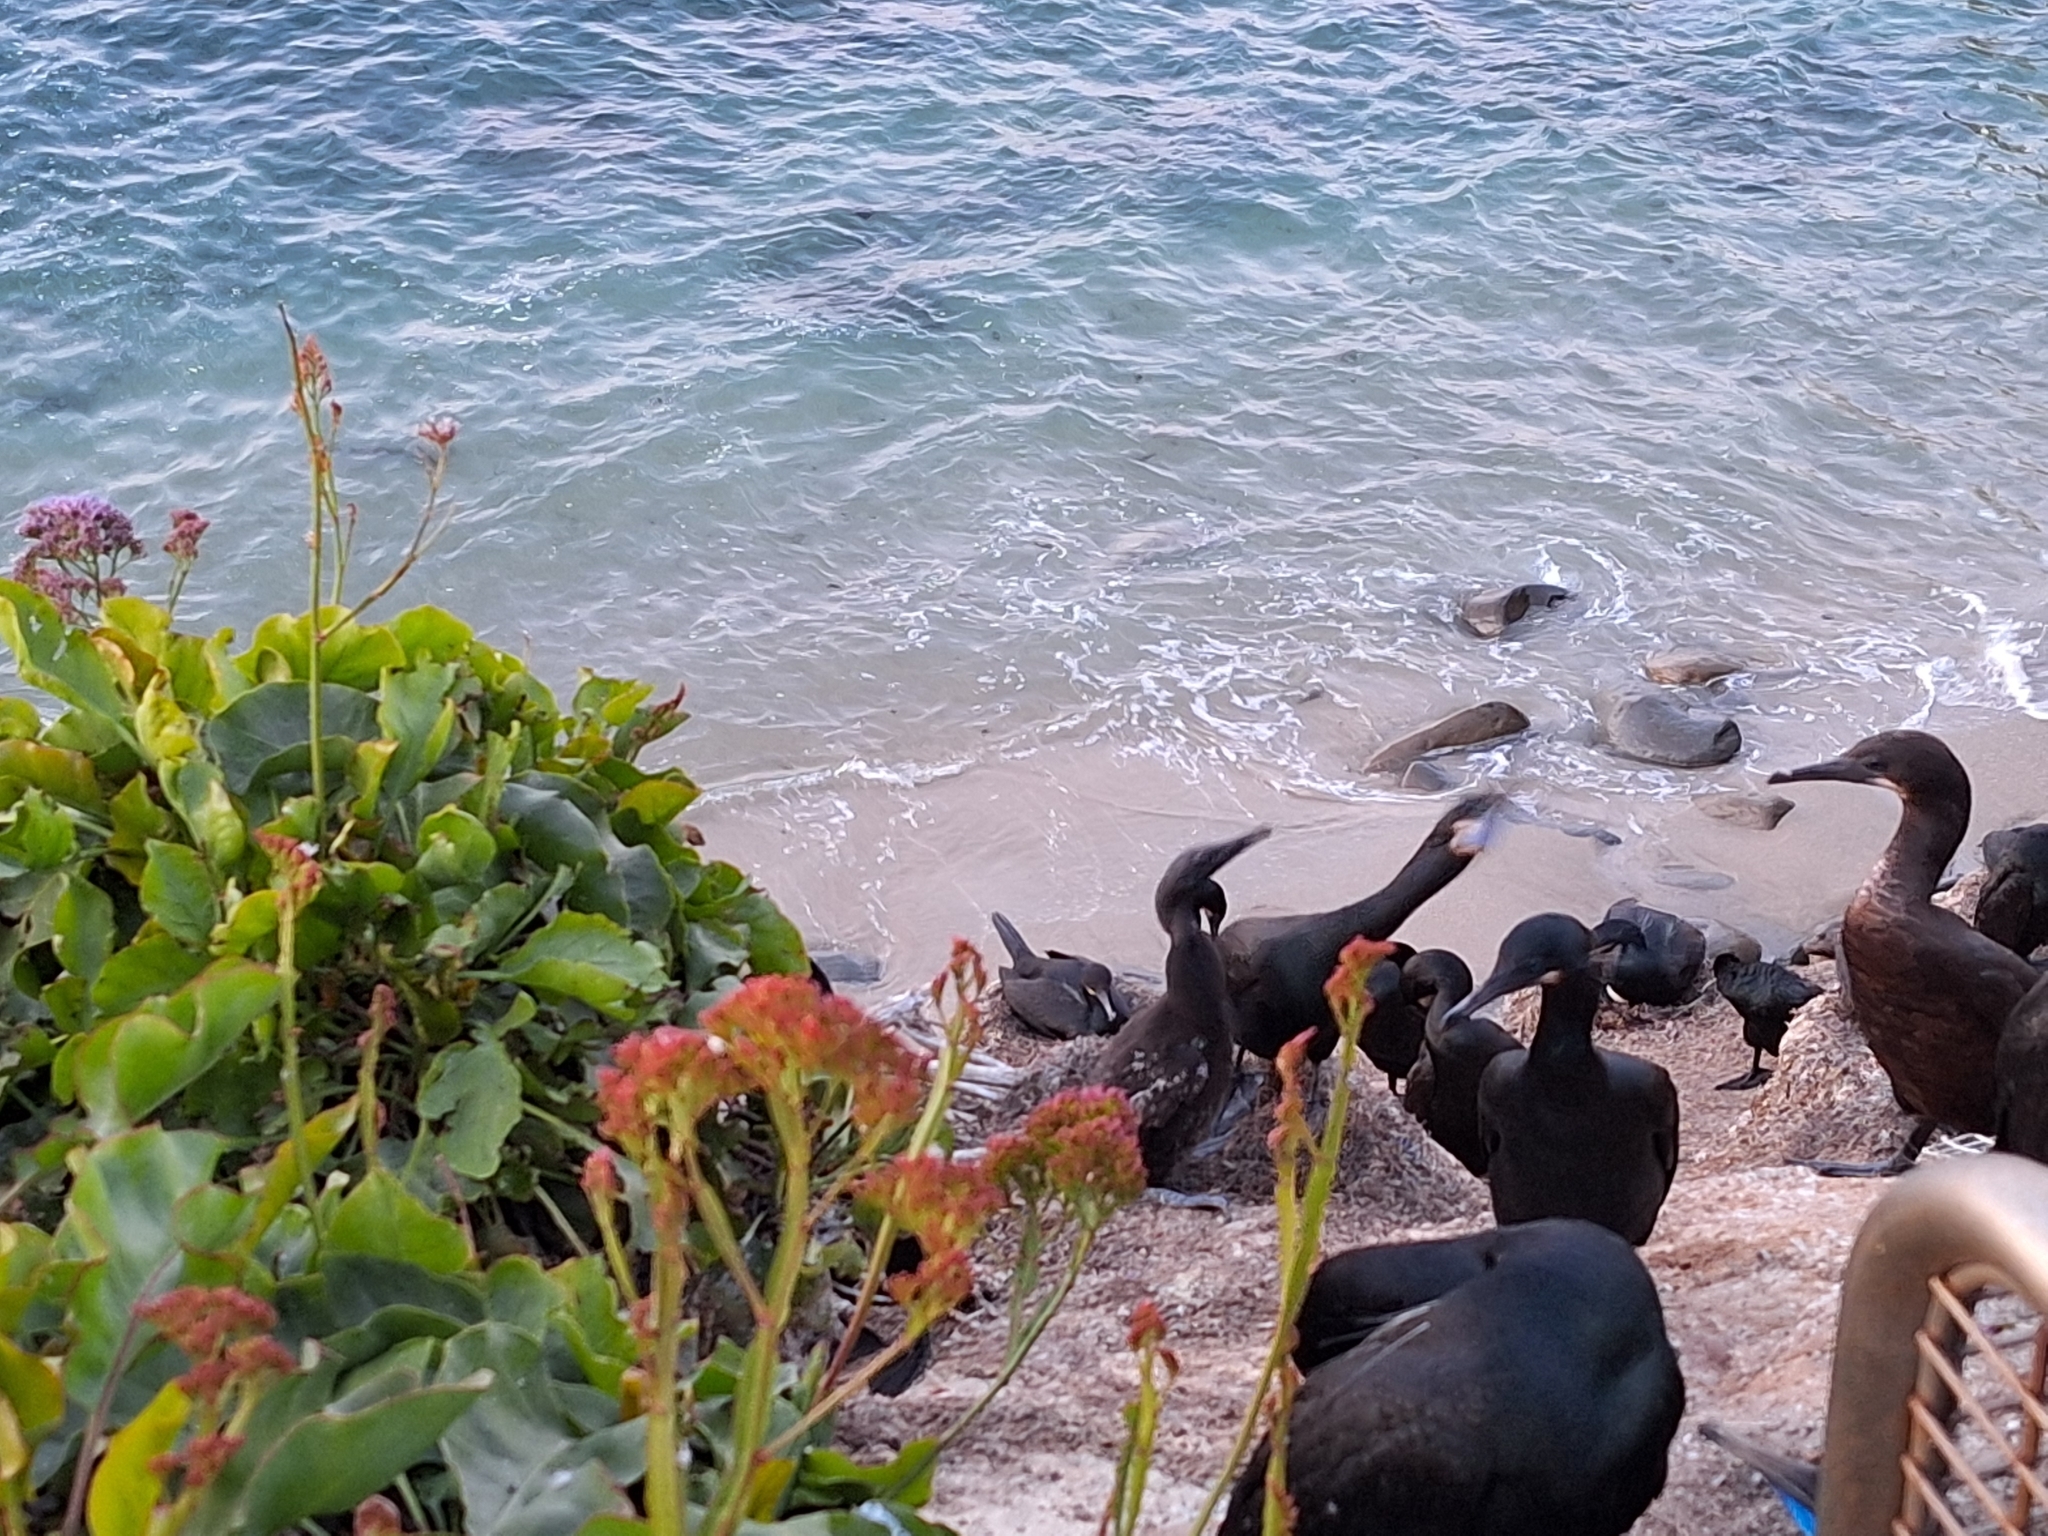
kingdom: Animalia
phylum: Chordata
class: Aves
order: Suliformes
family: Phalacrocoracidae
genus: Urile
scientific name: Urile penicillatus
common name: Brandt's cormorant
